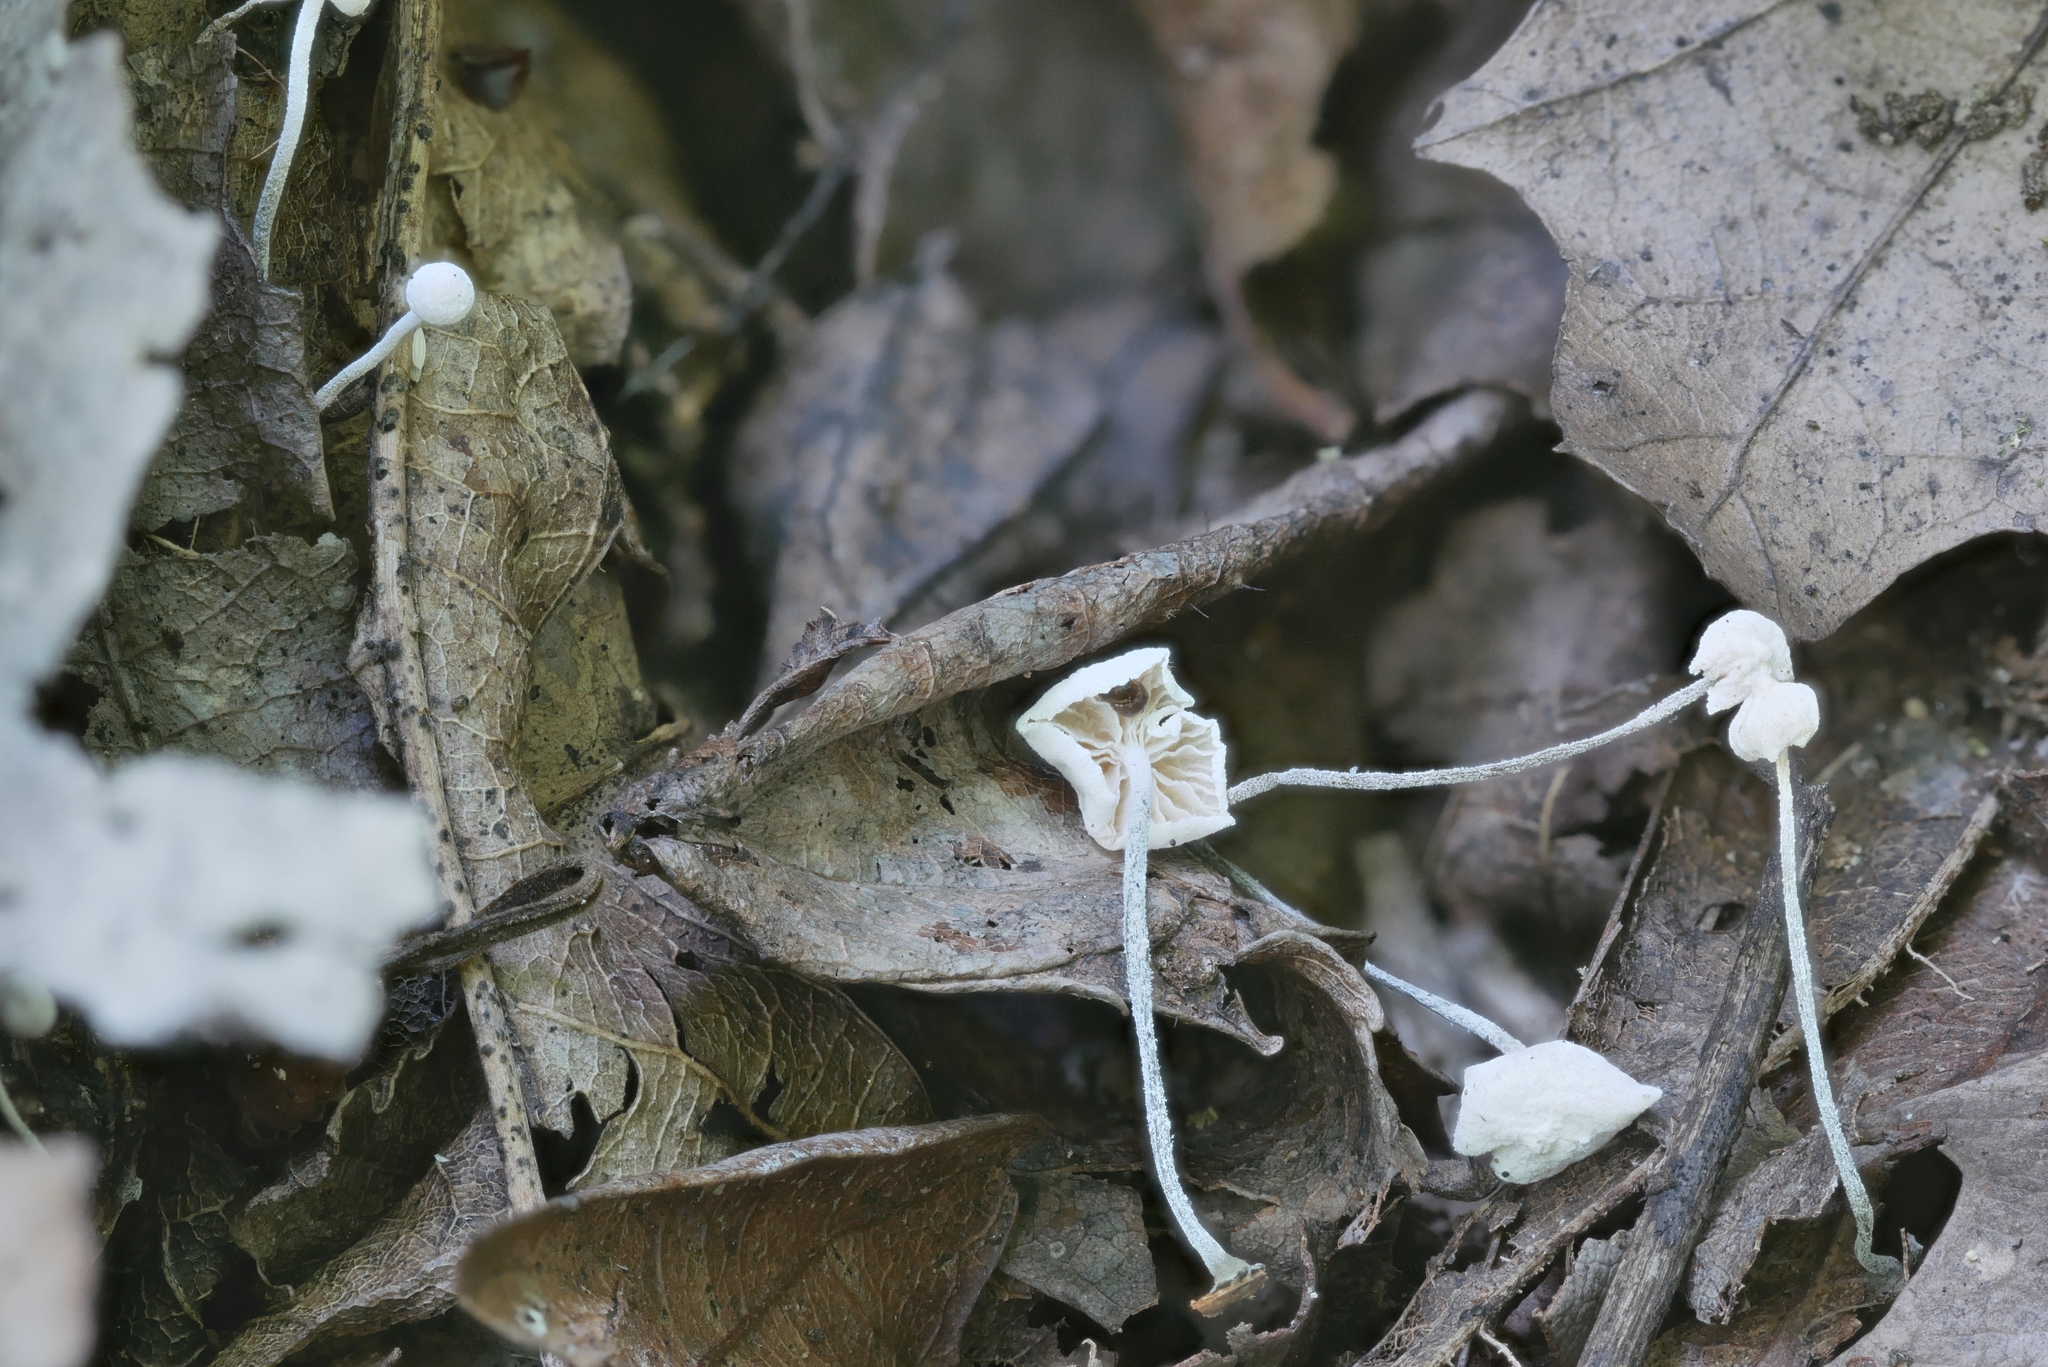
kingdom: Fungi
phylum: Basidiomycota
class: Agaricomycetes
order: Agaricales
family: Marasmiaceae
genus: Tetrapyrgos
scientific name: Tetrapyrgos nigripes
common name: Black-stalked marasmius
